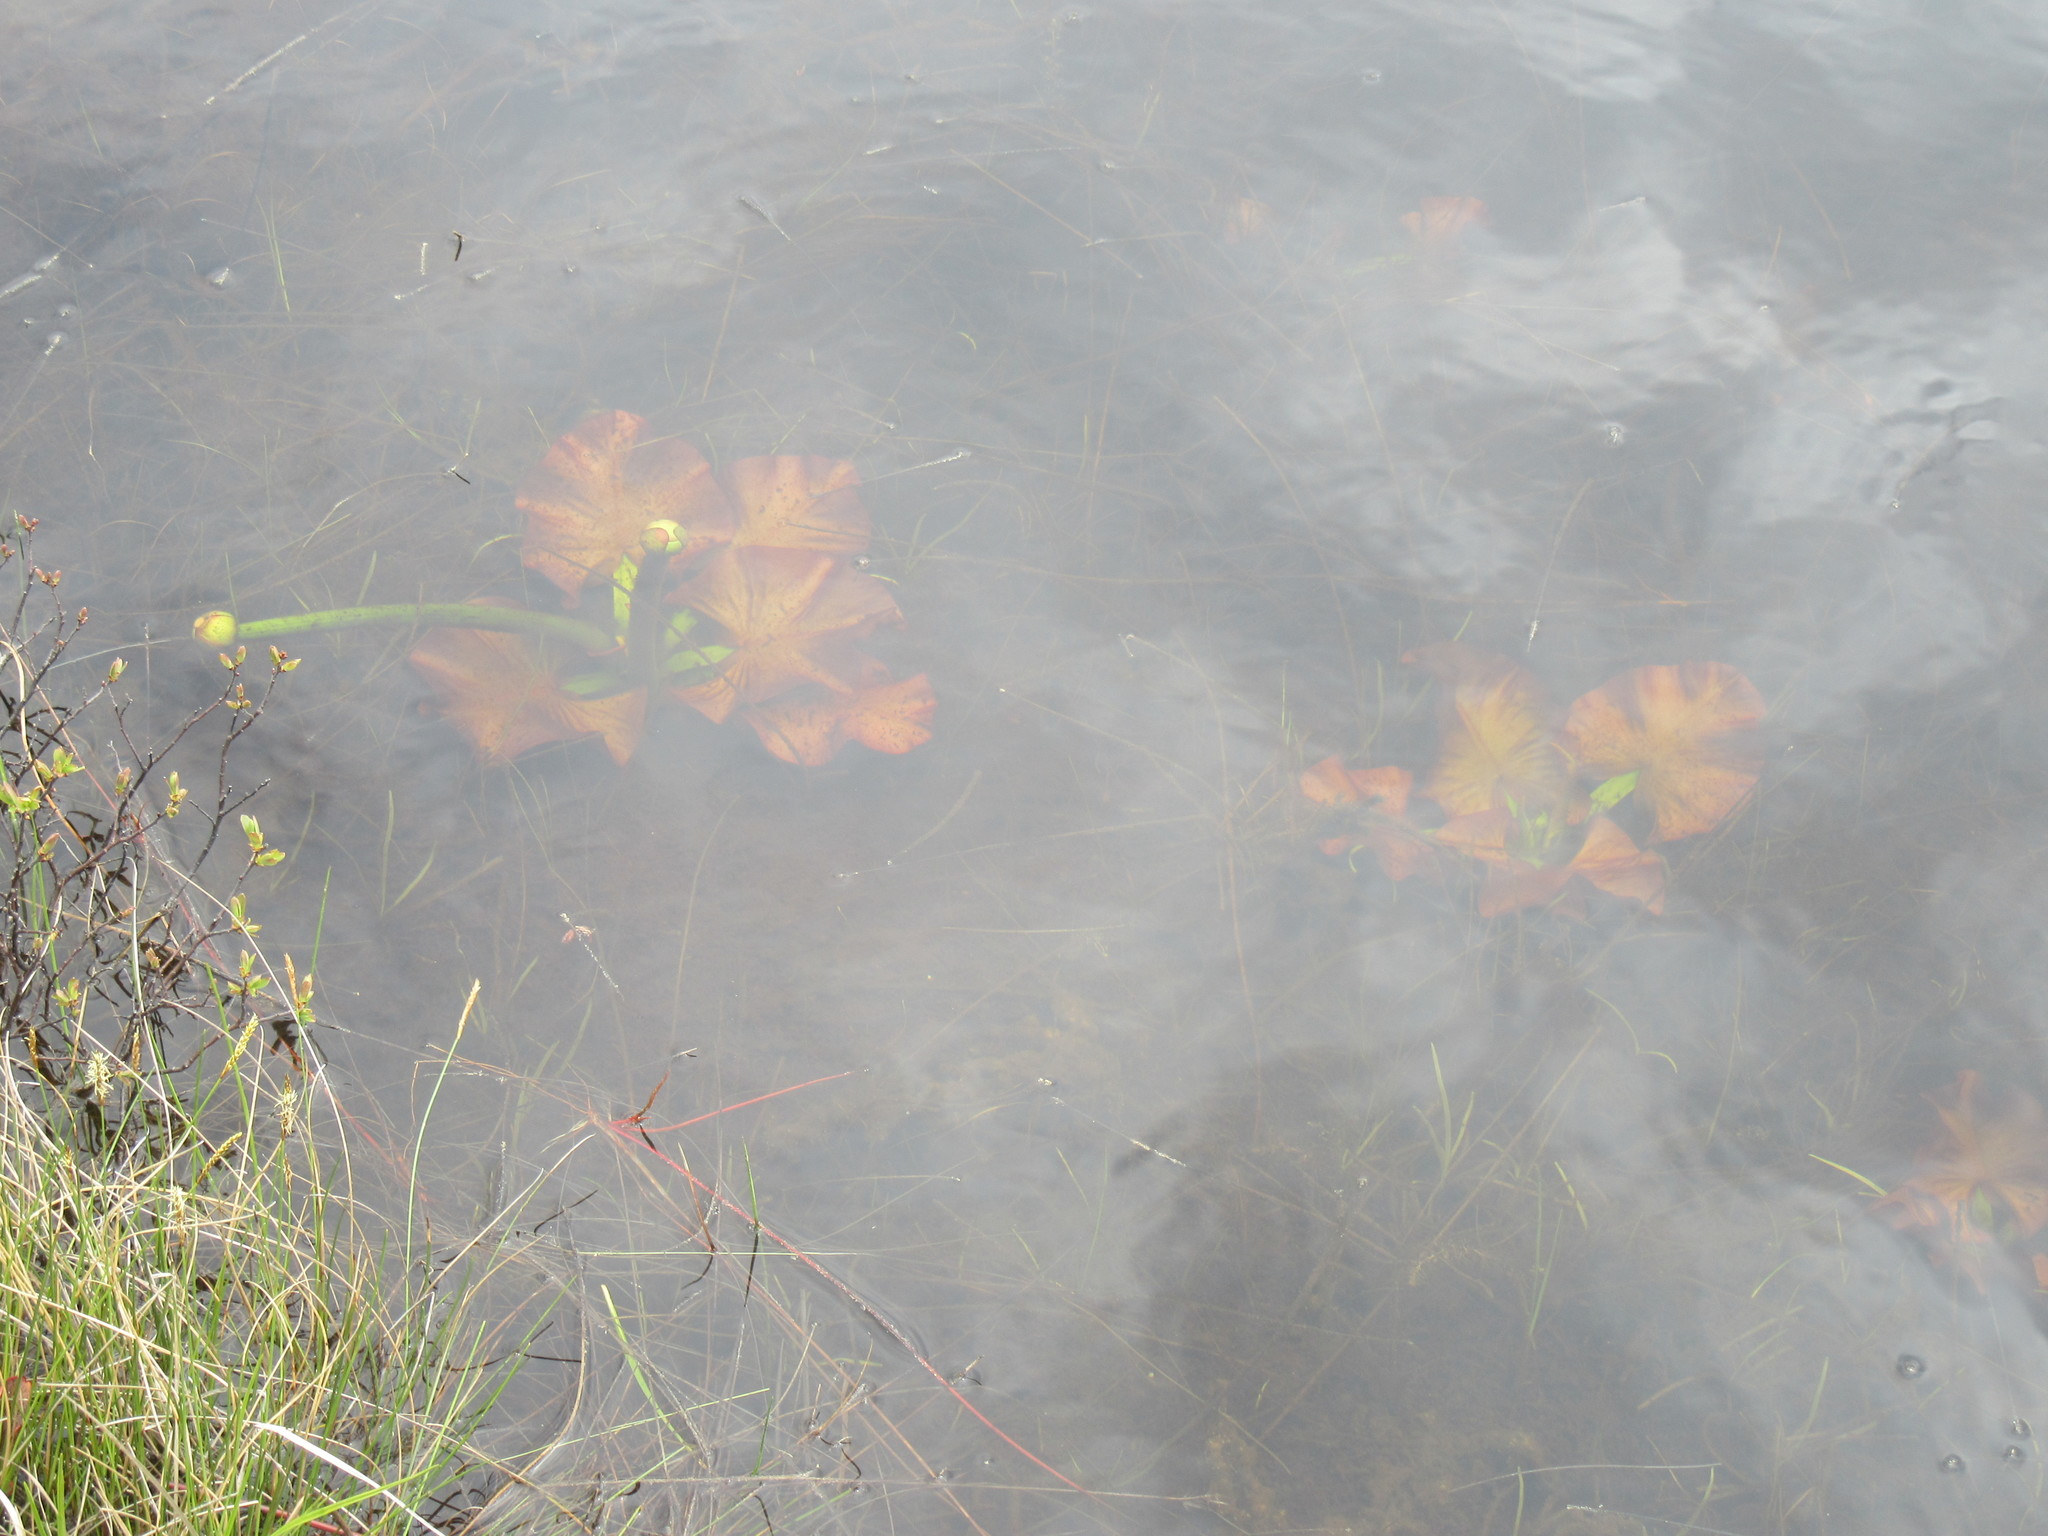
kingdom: Plantae
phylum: Tracheophyta
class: Magnoliopsida
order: Nymphaeales
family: Nymphaeaceae
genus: Nuphar
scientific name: Nuphar variegata
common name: Beaver-root
